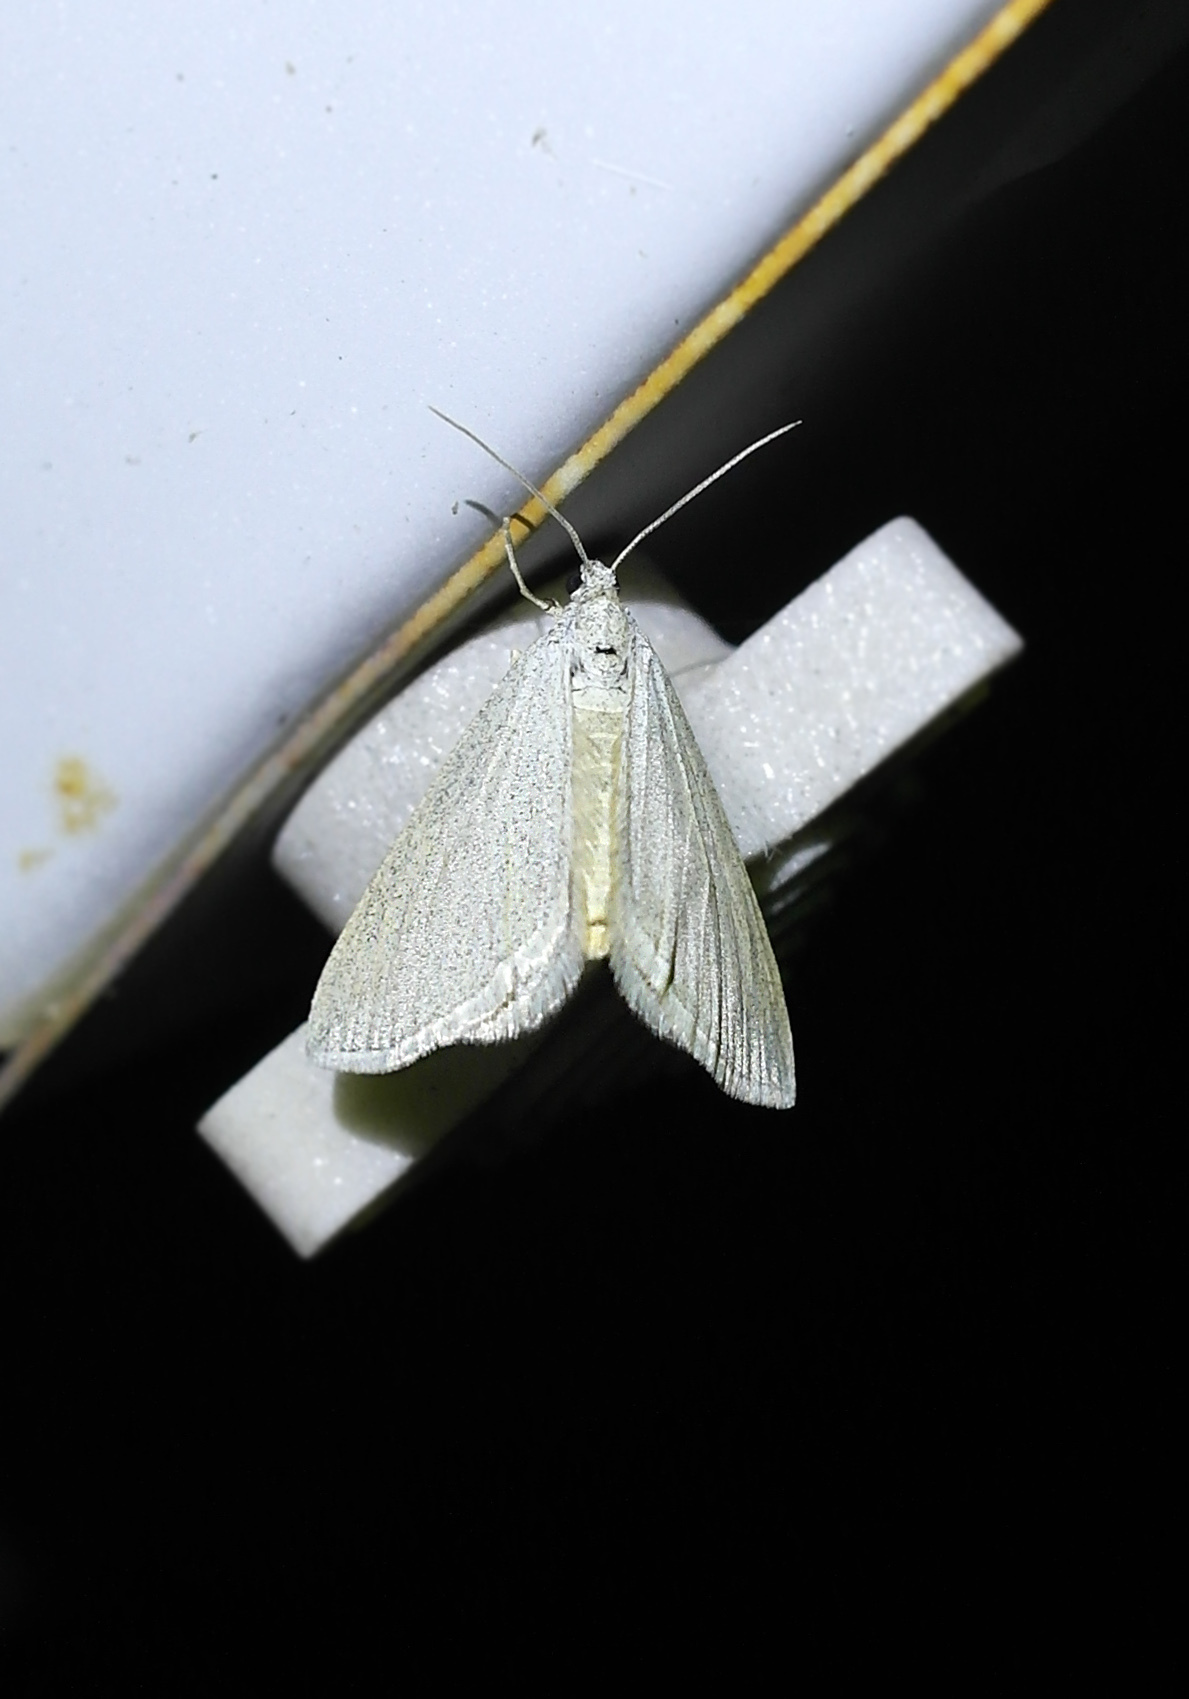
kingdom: Animalia
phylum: Arthropoda
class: Insecta
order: Lepidoptera
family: Geometridae
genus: Lithostege
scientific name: Lithostege griseata
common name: Grey carpet
